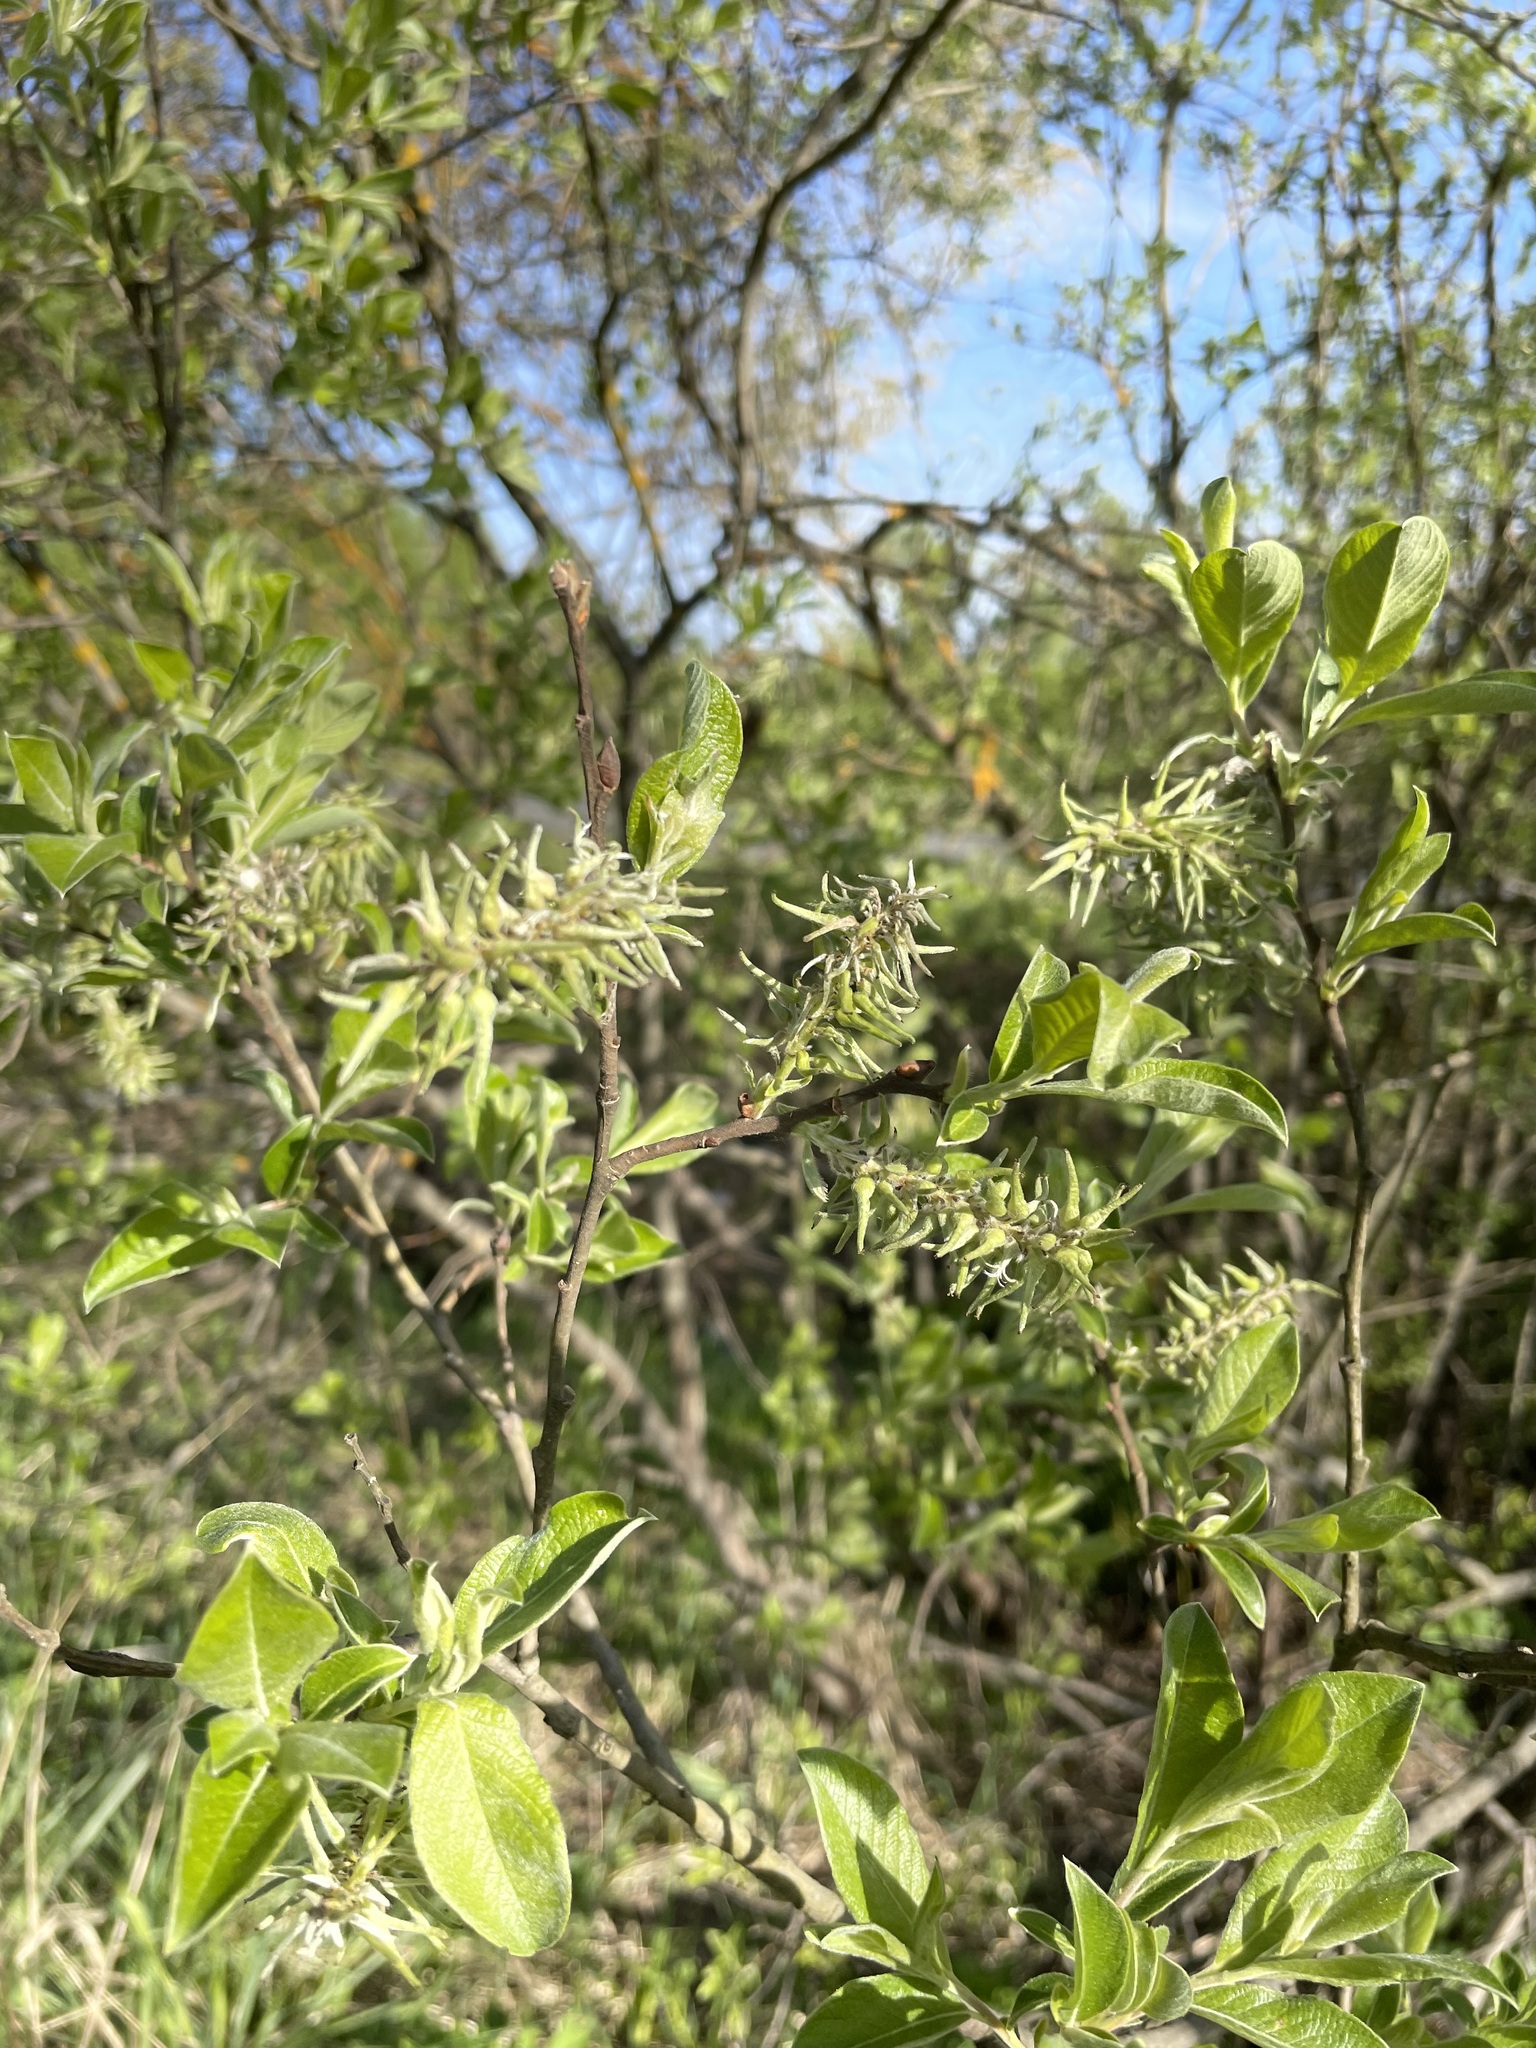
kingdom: Plantae
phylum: Tracheophyta
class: Magnoliopsida
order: Malpighiales
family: Salicaceae
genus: Salix
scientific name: Salix cinerea
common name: Common sallow
